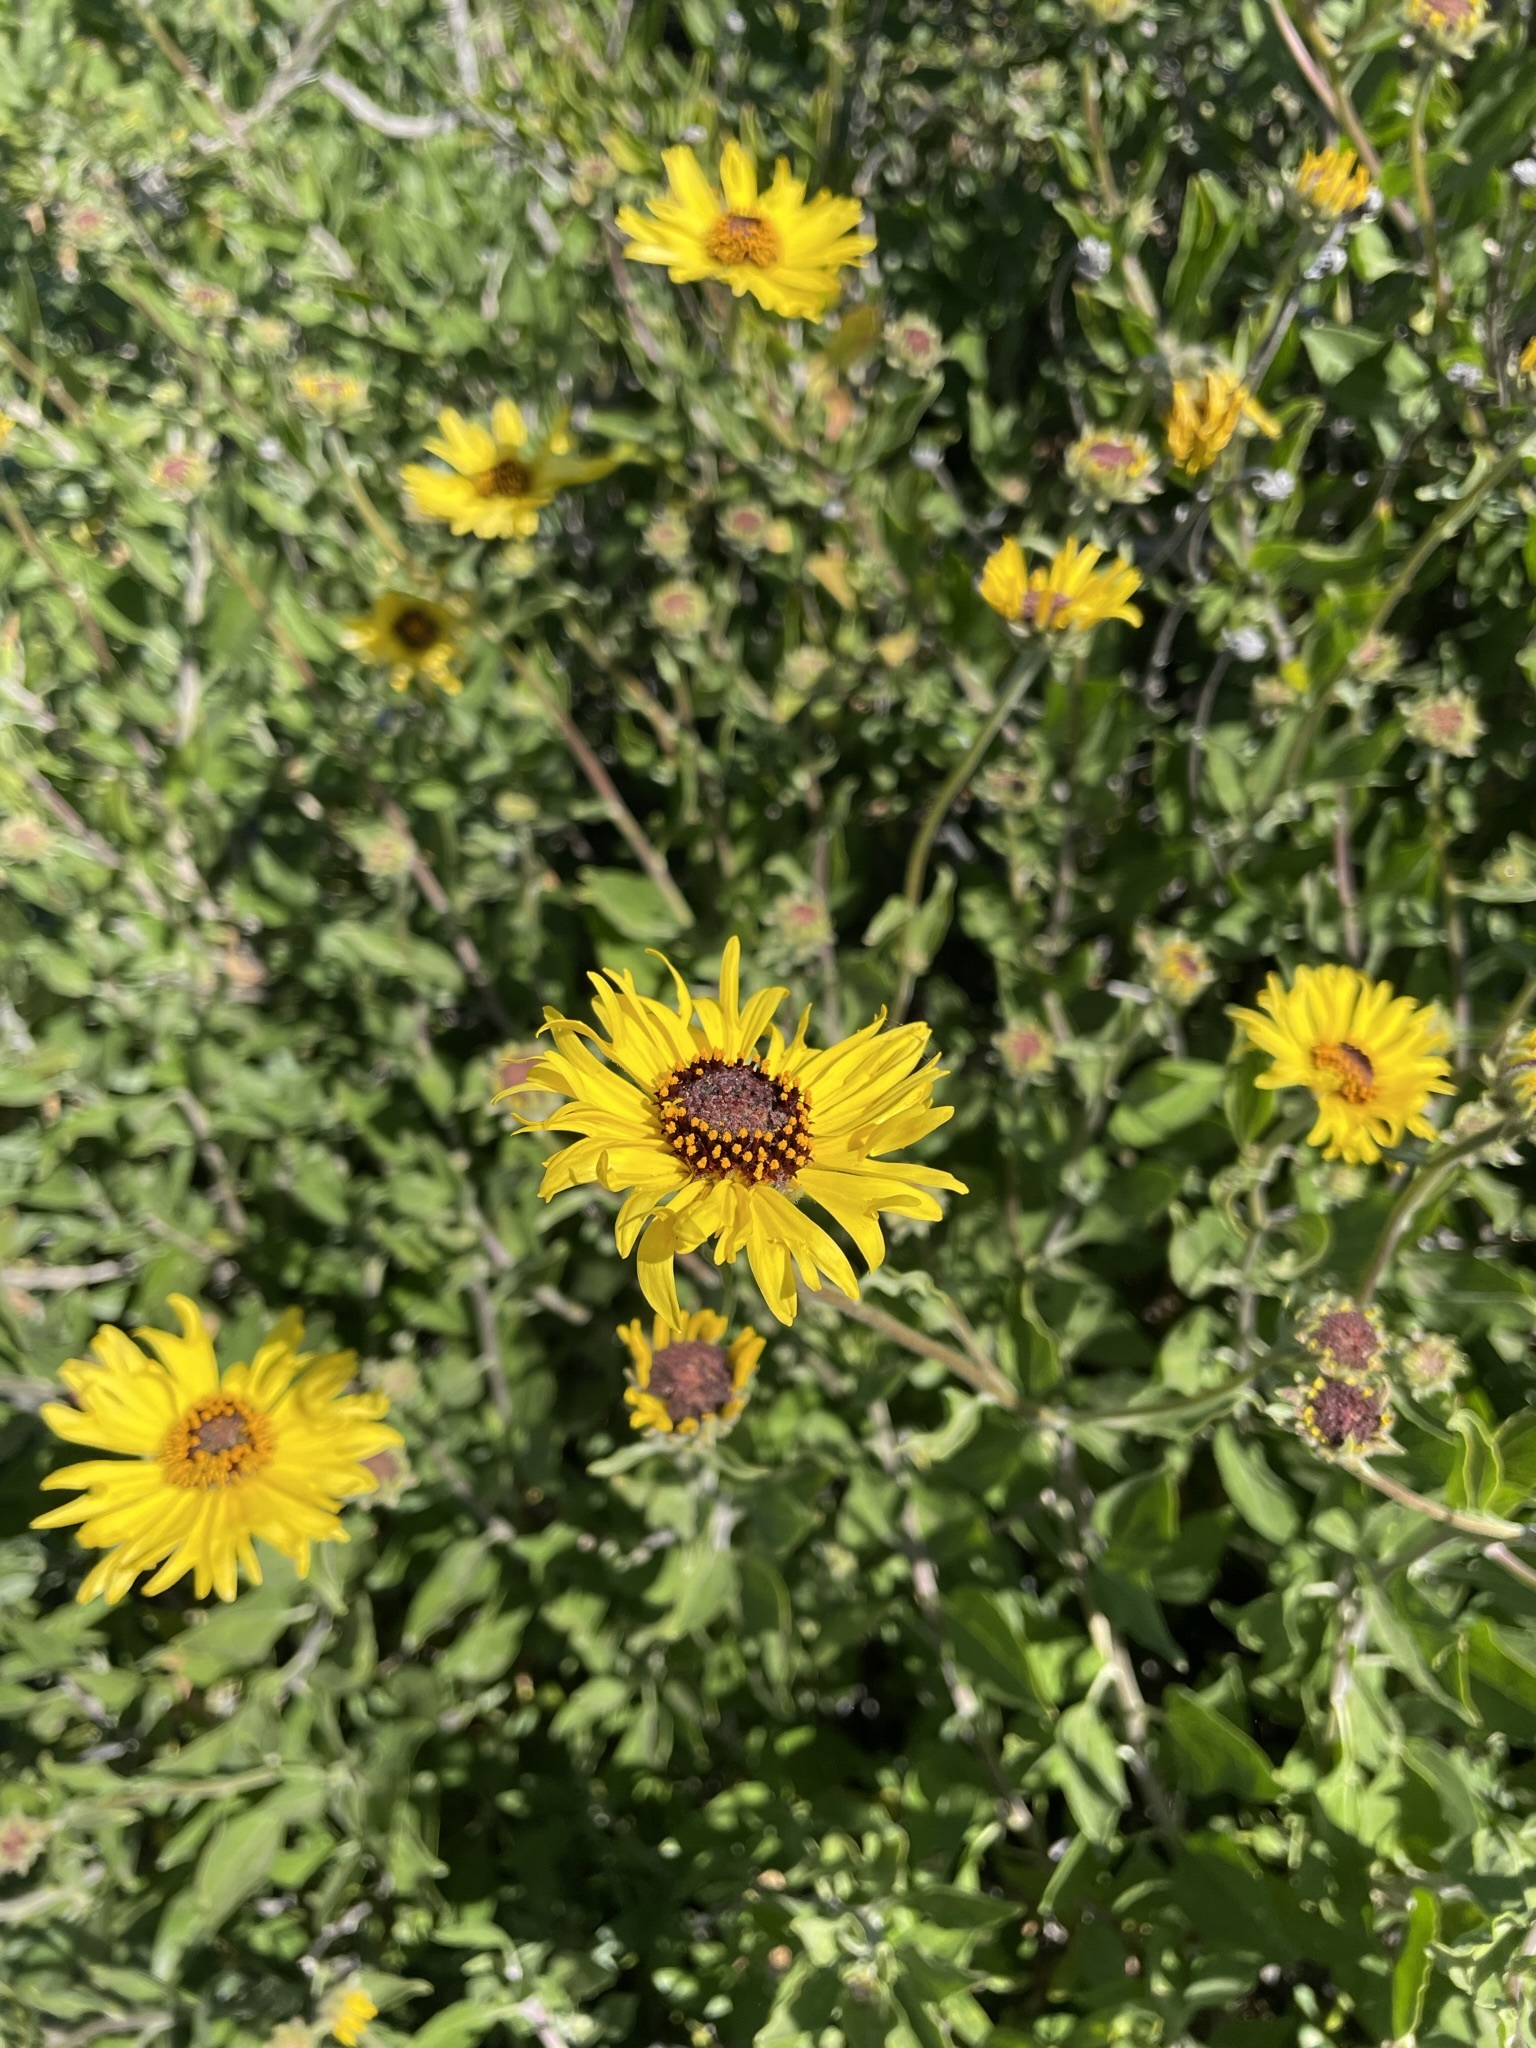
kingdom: Plantae
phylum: Tracheophyta
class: Magnoliopsida
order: Asterales
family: Asteraceae
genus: Encelia
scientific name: Encelia californica
